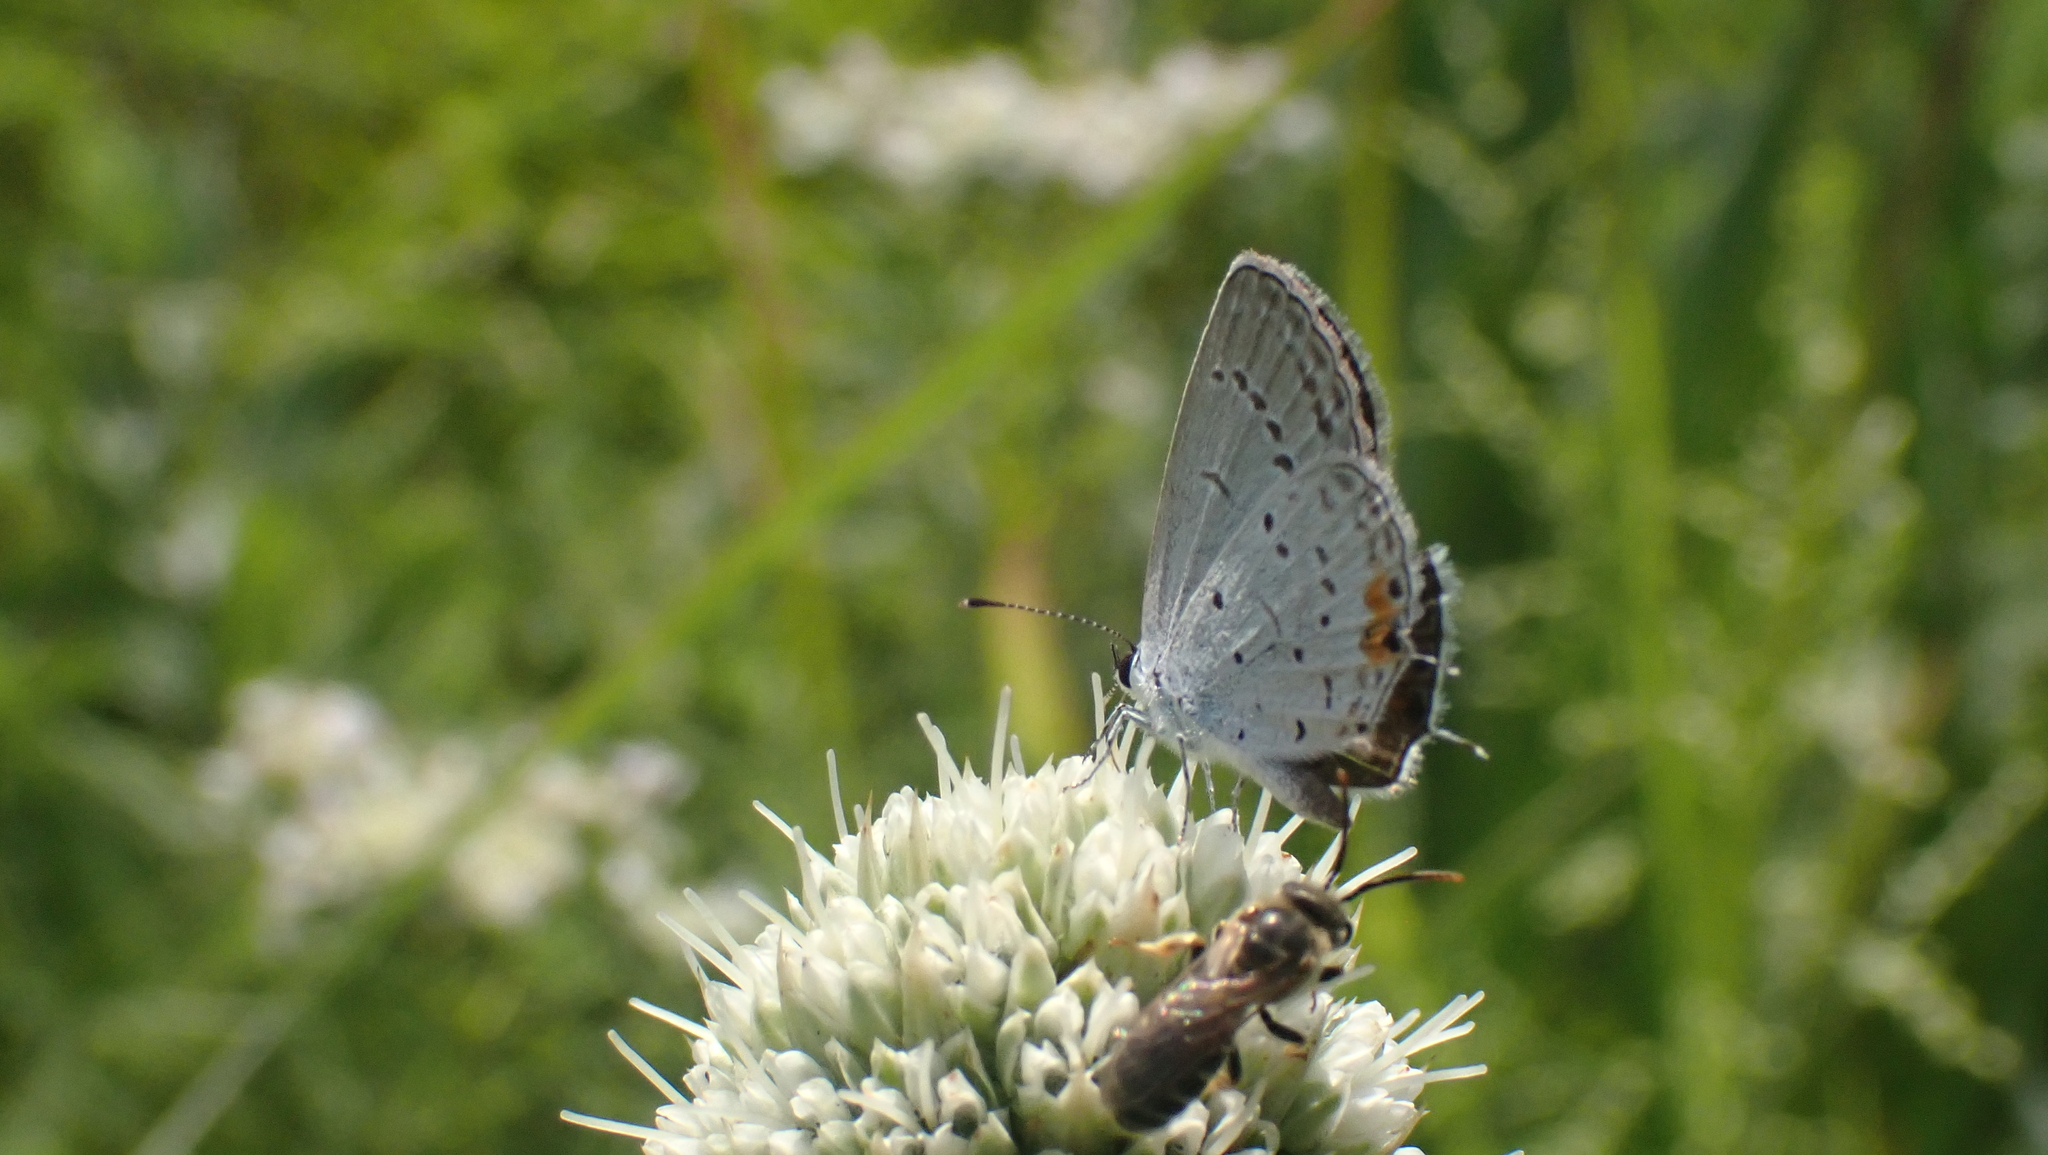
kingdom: Animalia
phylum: Arthropoda
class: Insecta
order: Lepidoptera
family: Lycaenidae
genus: Elkalyce
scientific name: Elkalyce comyntas
